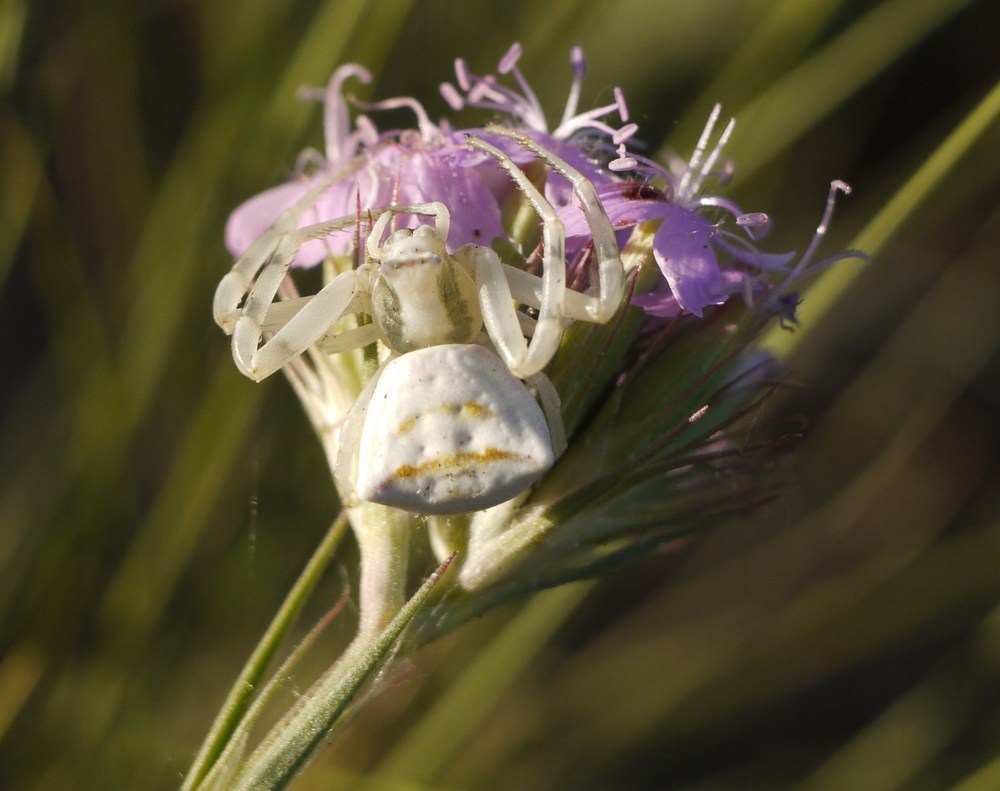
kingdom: Animalia
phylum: Arthropoda
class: Arachnida
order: Araneae
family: Thomisidae
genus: Thomisus
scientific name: Thomisus onustus
